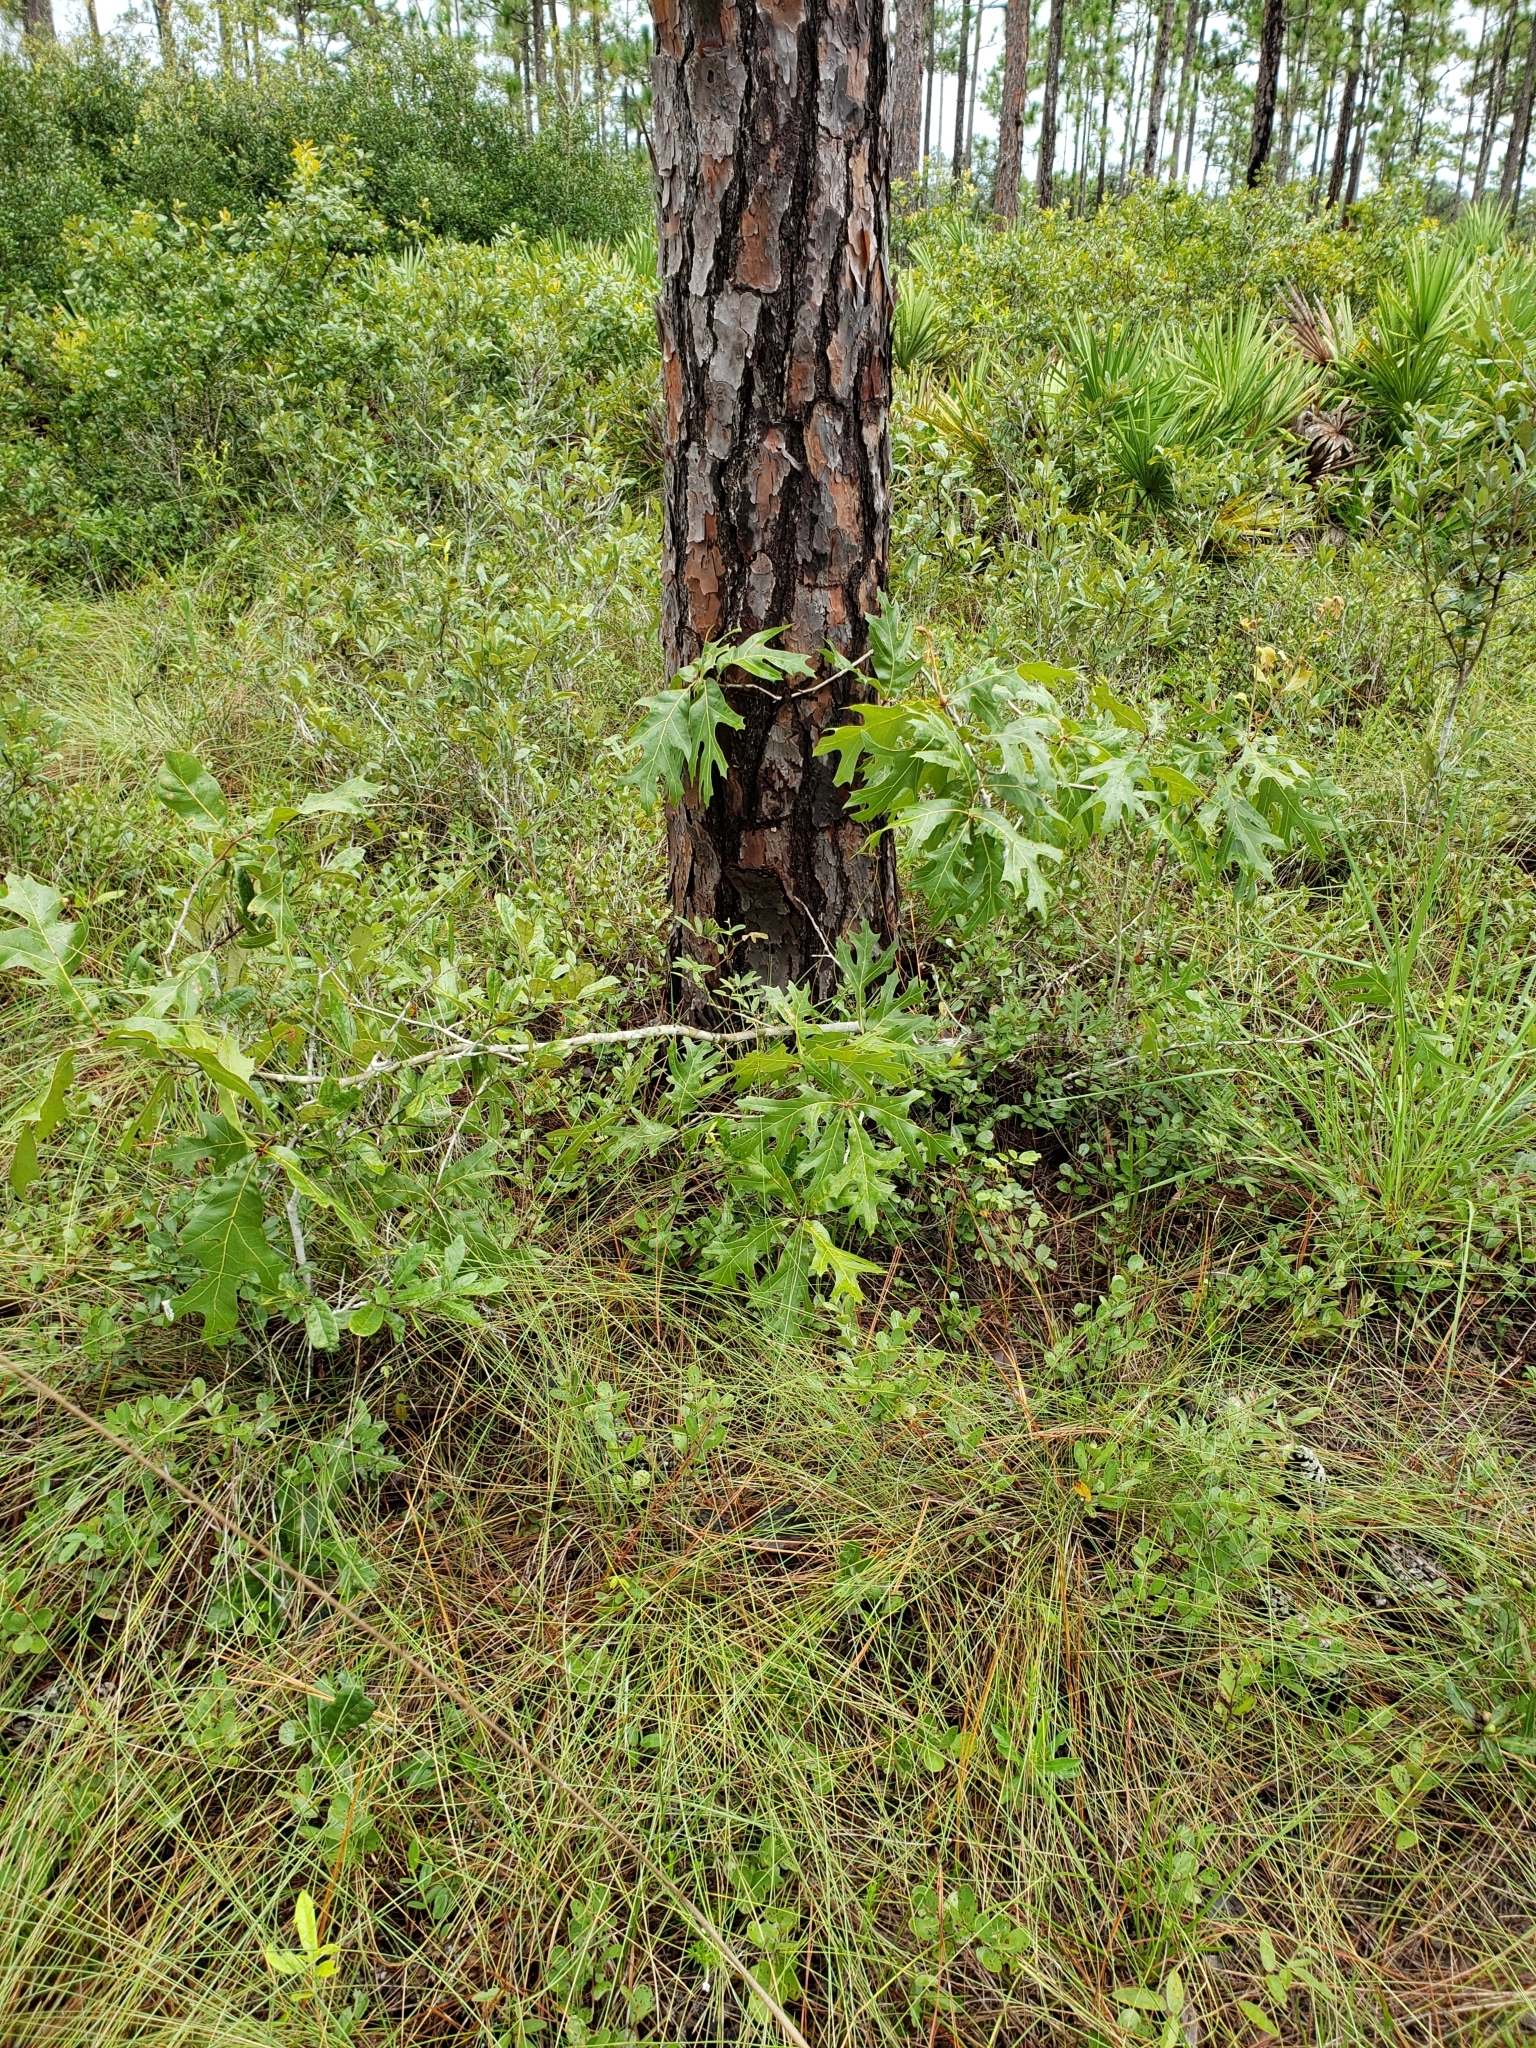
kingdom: Plantae
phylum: Tracheophyta
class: Magnoliopsida
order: Fagales
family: Fagaceae
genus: Quercus
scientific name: Quercus laevis
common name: Turkey oak
